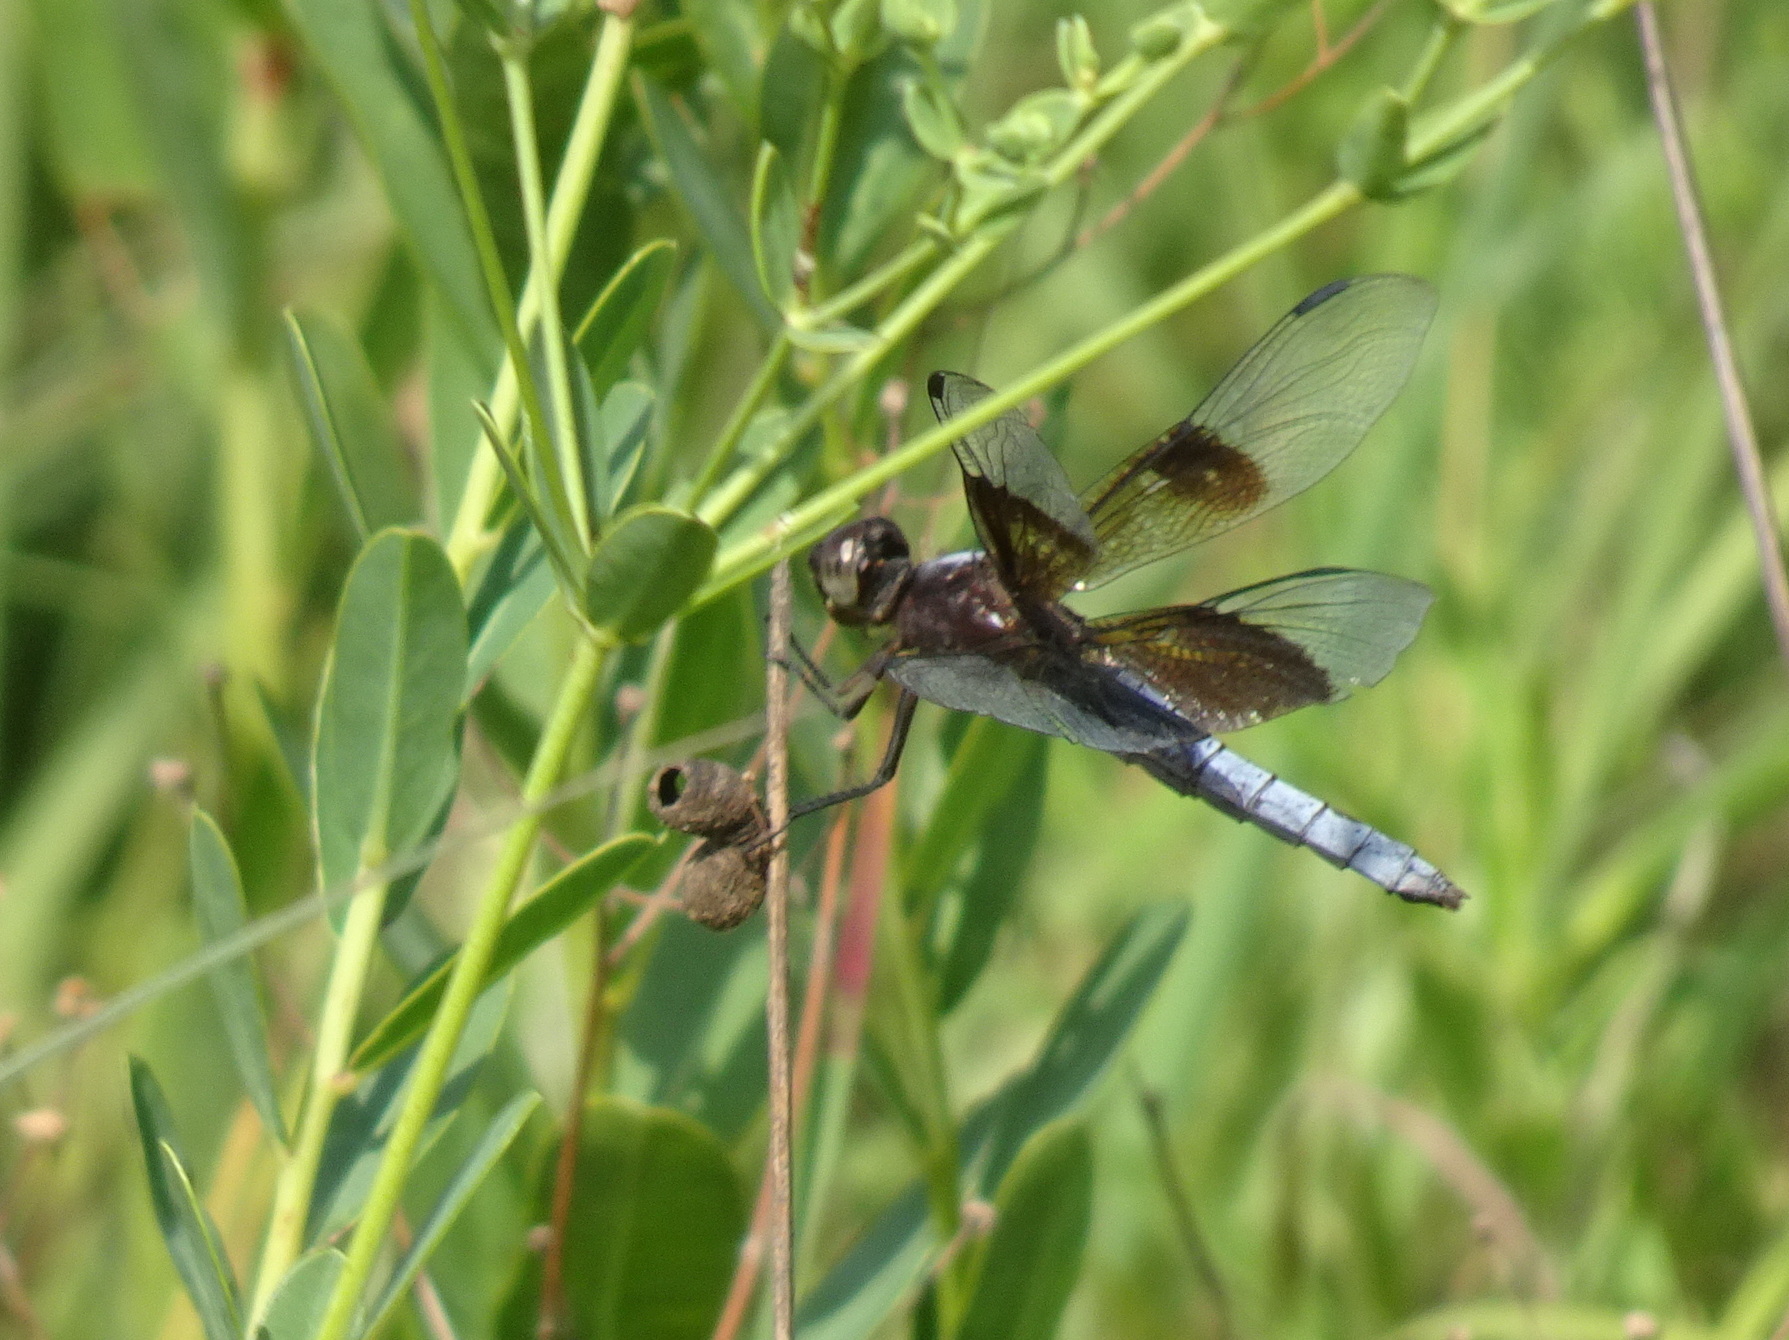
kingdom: Animalia
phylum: Arthropoda
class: Insecta
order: Odonata
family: Libellulidae
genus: Libellula
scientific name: Libellula luctuosa
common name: Widow skimmer
